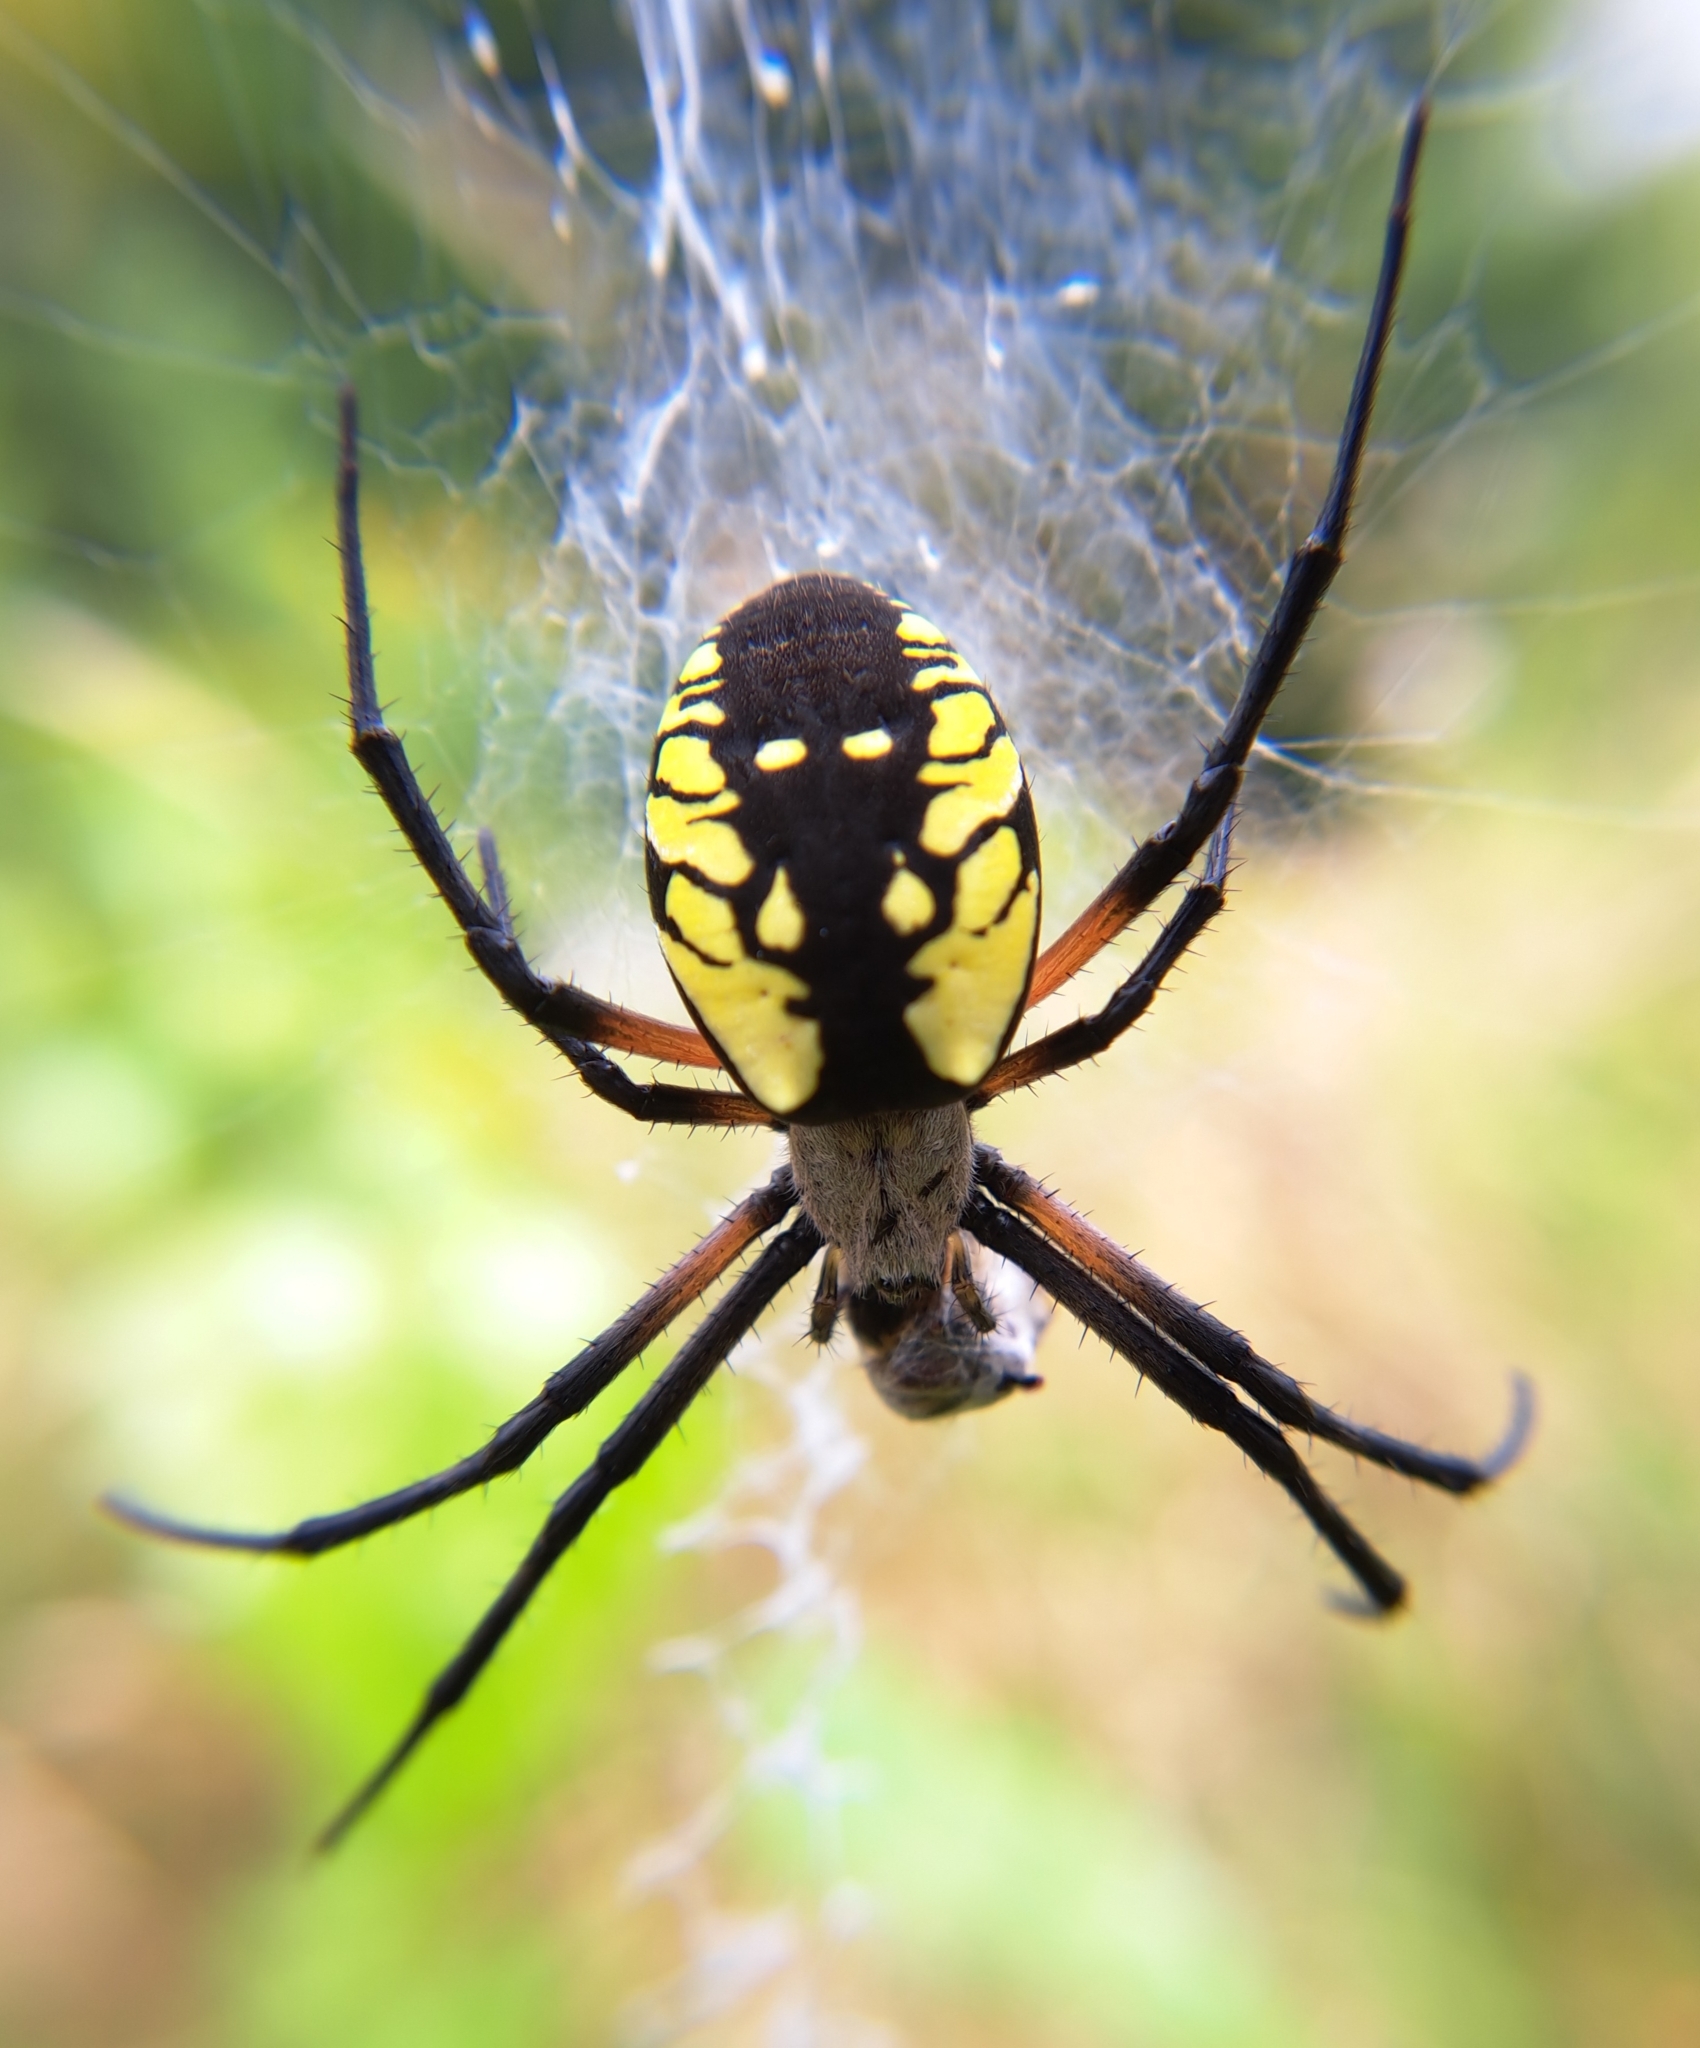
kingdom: Animalia
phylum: Arthropoda
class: Arachnida
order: Araneae
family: Araneidae
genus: Argiope
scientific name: Argiope aurantia
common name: Orb weavers
